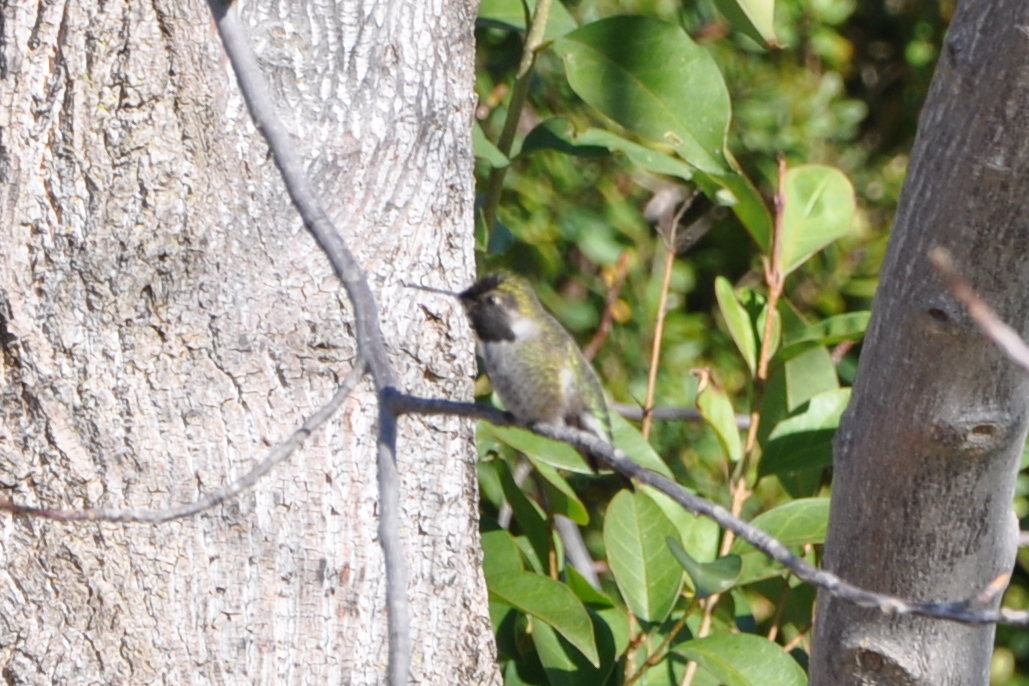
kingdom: Animalia
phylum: Chordata
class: Aves
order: Apodiformes
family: Trochilidae
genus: Calypte
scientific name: Calypte anna
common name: Anna's hummingbird
